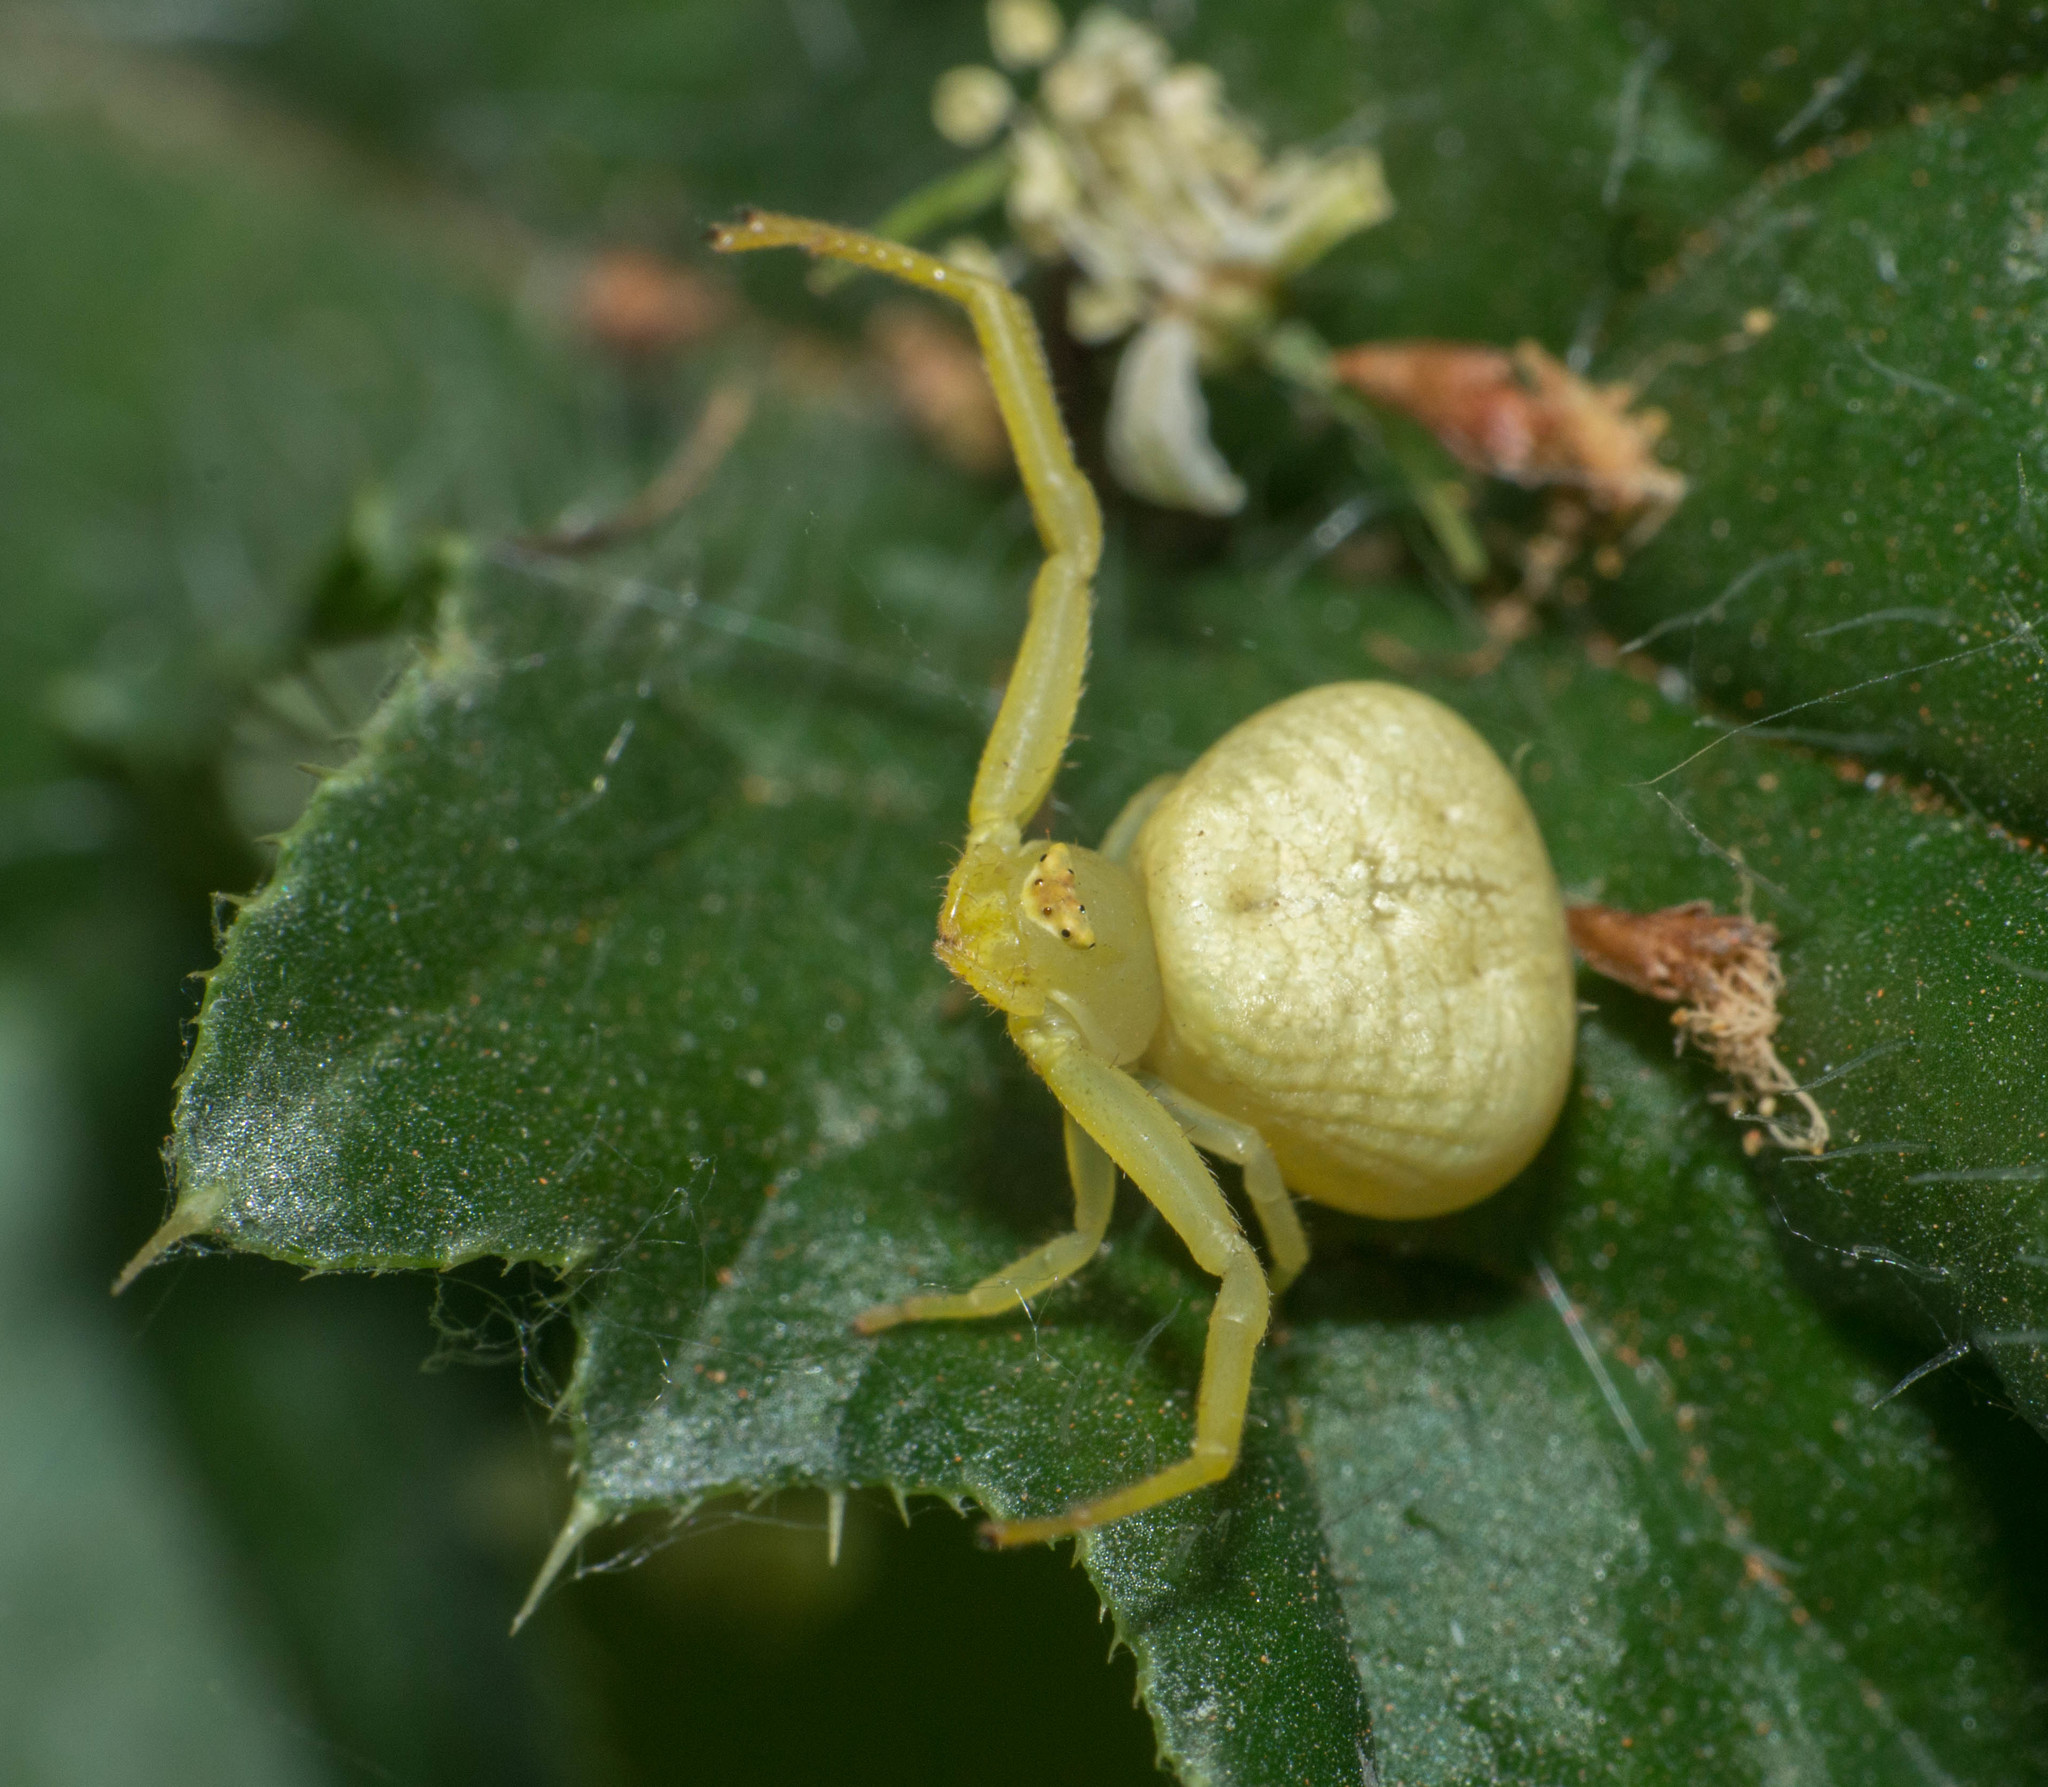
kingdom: Animalia
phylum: Arthropoda
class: Arachnida
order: Araneae
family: Thomisidae
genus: Misumenops
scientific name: Misumenops
